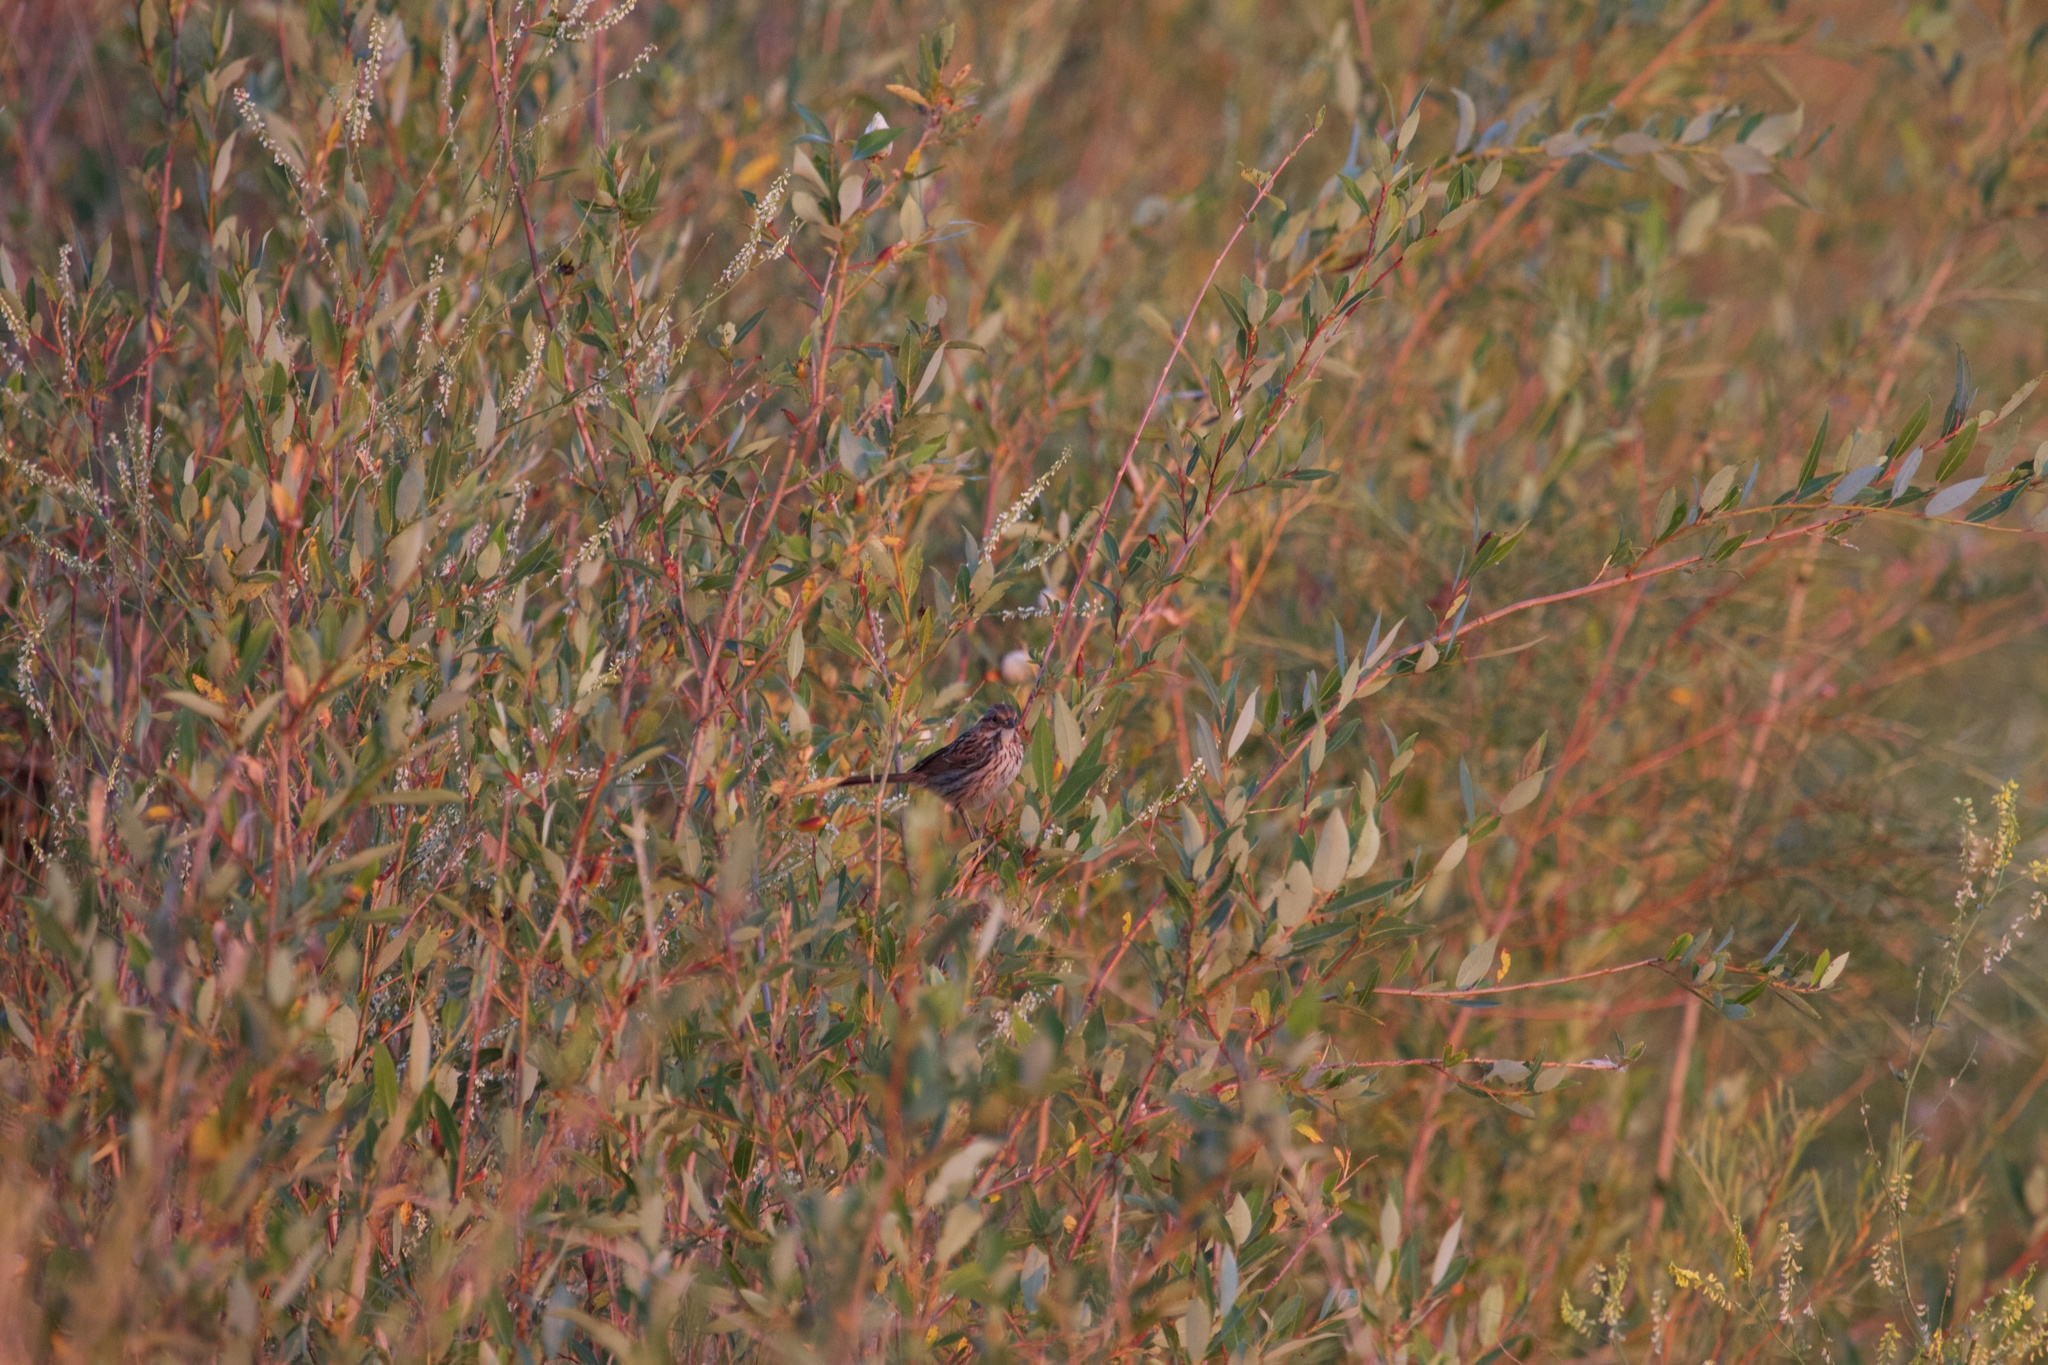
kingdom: Animalia
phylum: Chordata
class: Aves
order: Passeriformes
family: Passerellidae
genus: Melospiza
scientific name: Melospiza melodia
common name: Song sparrow
